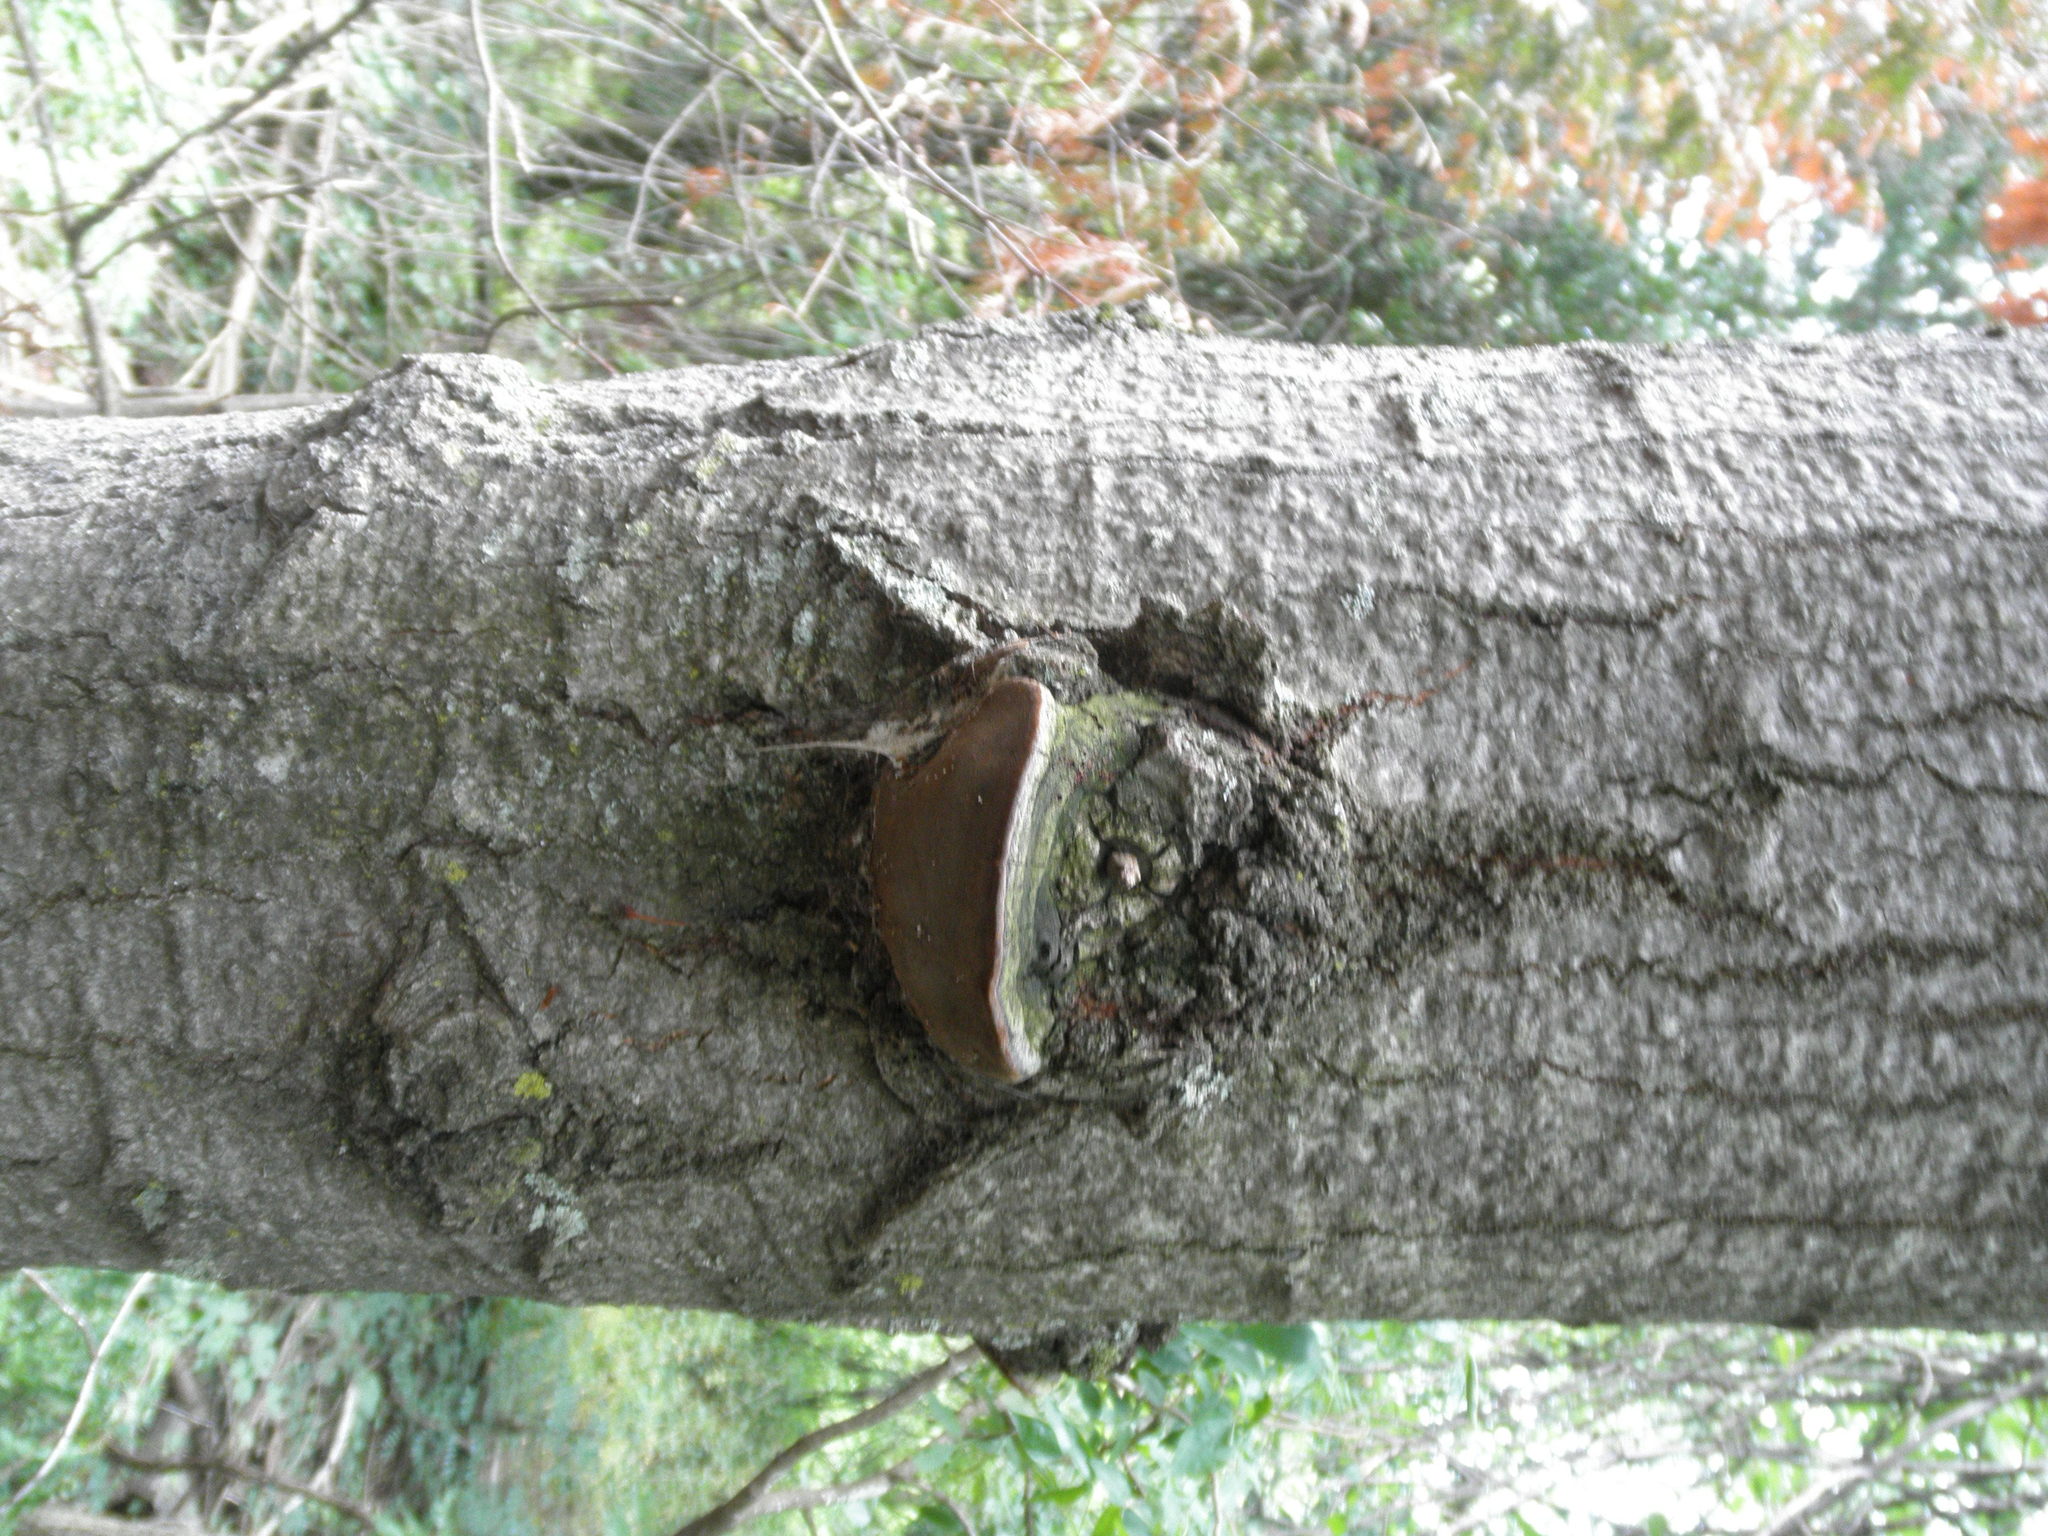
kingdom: Fungi
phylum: Basidiomycota
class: Agaricomycetes
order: Hymenochaetales
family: Hymenochaetaceae
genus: Phellinus
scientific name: Phellinus tremulae
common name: Aspen bracket
